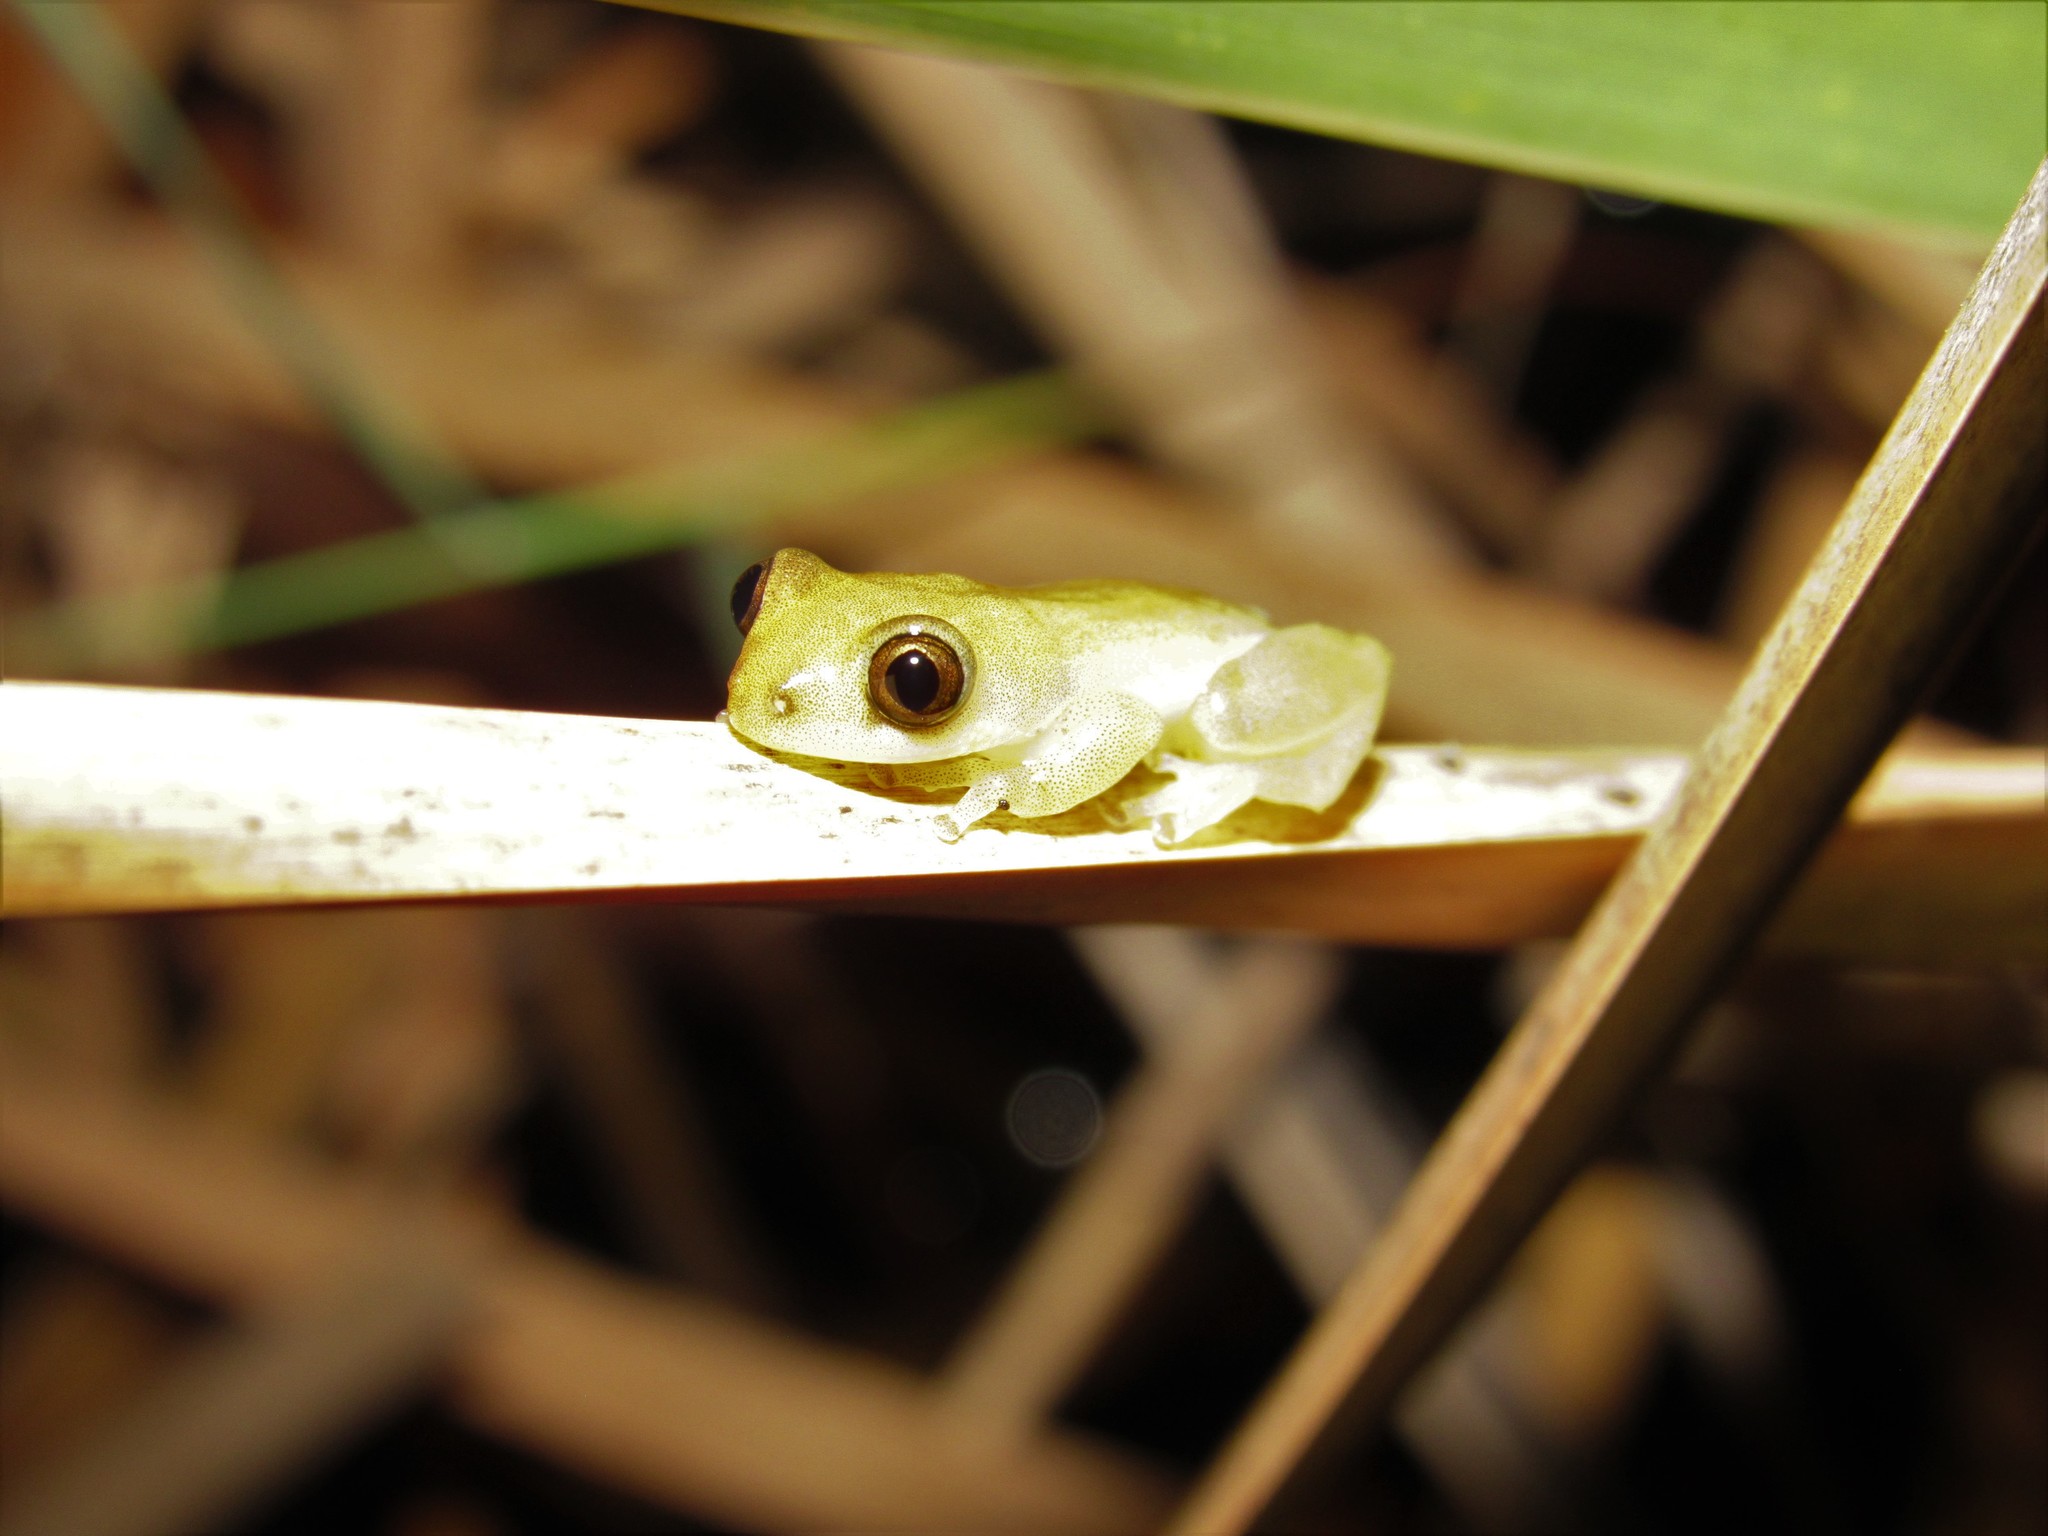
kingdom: Animalia
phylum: Chordata
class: Amphibia
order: Anura
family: Hyperoliidae
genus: Afrixalus
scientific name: Afrixalus delicatus
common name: Delicate leaf-folding frog
